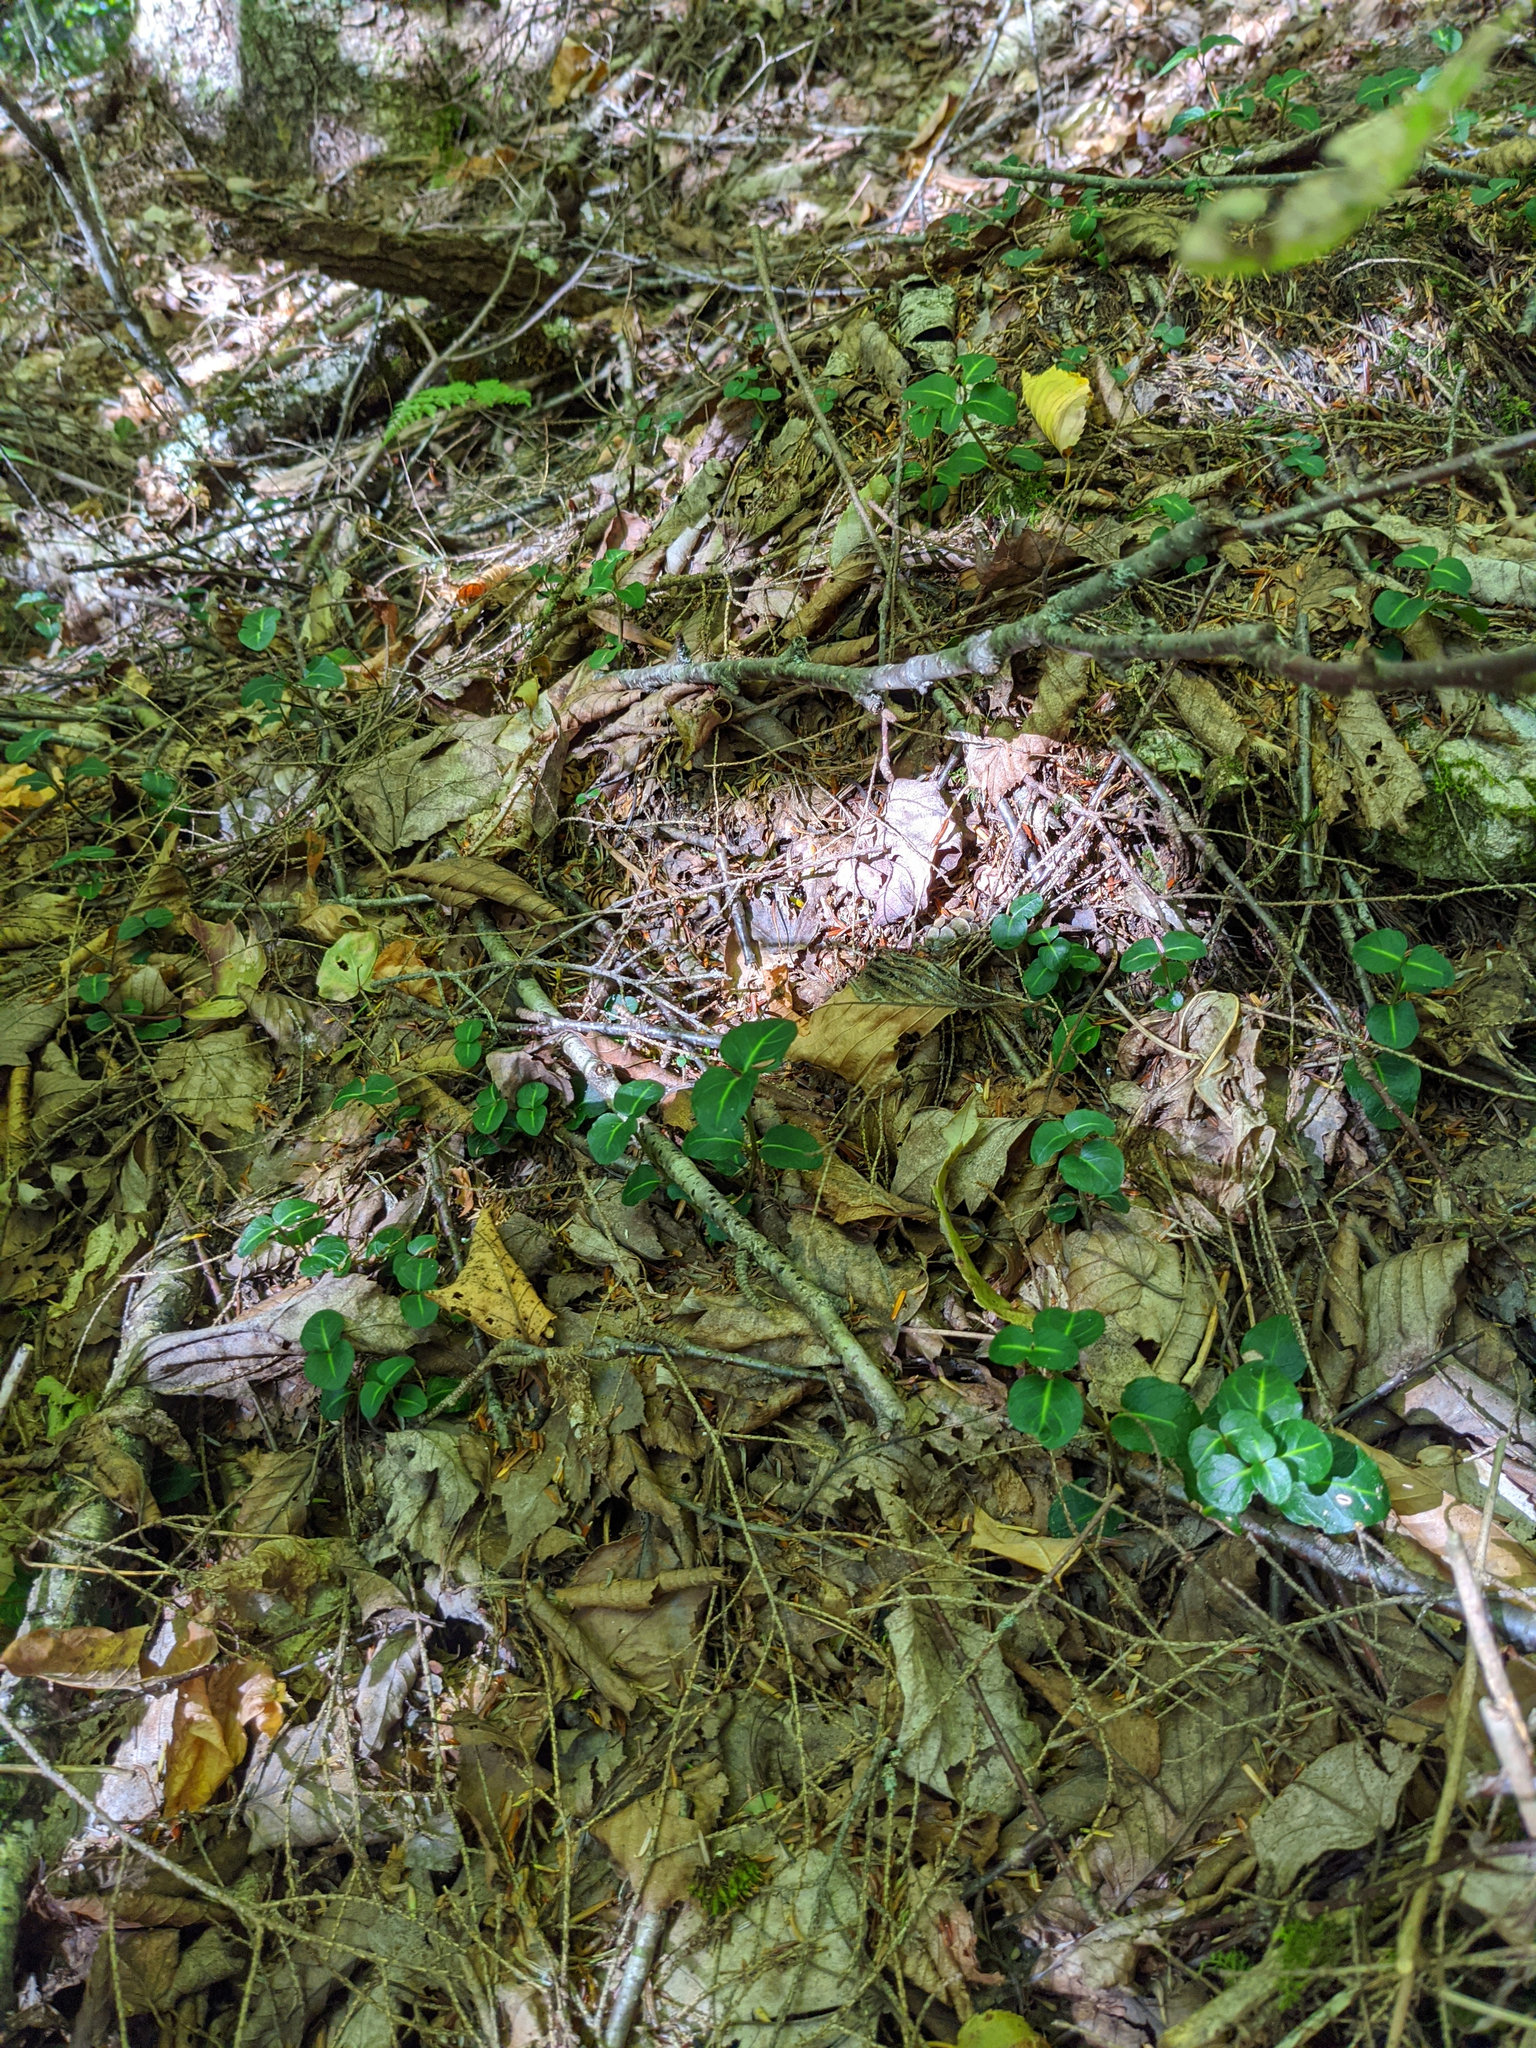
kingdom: Plantae
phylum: Tracheophyta
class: Magnoliopsida
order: Gentianales
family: Rubiaceae
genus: Mitchella
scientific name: Mitchella repens
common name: Partridge-berry
